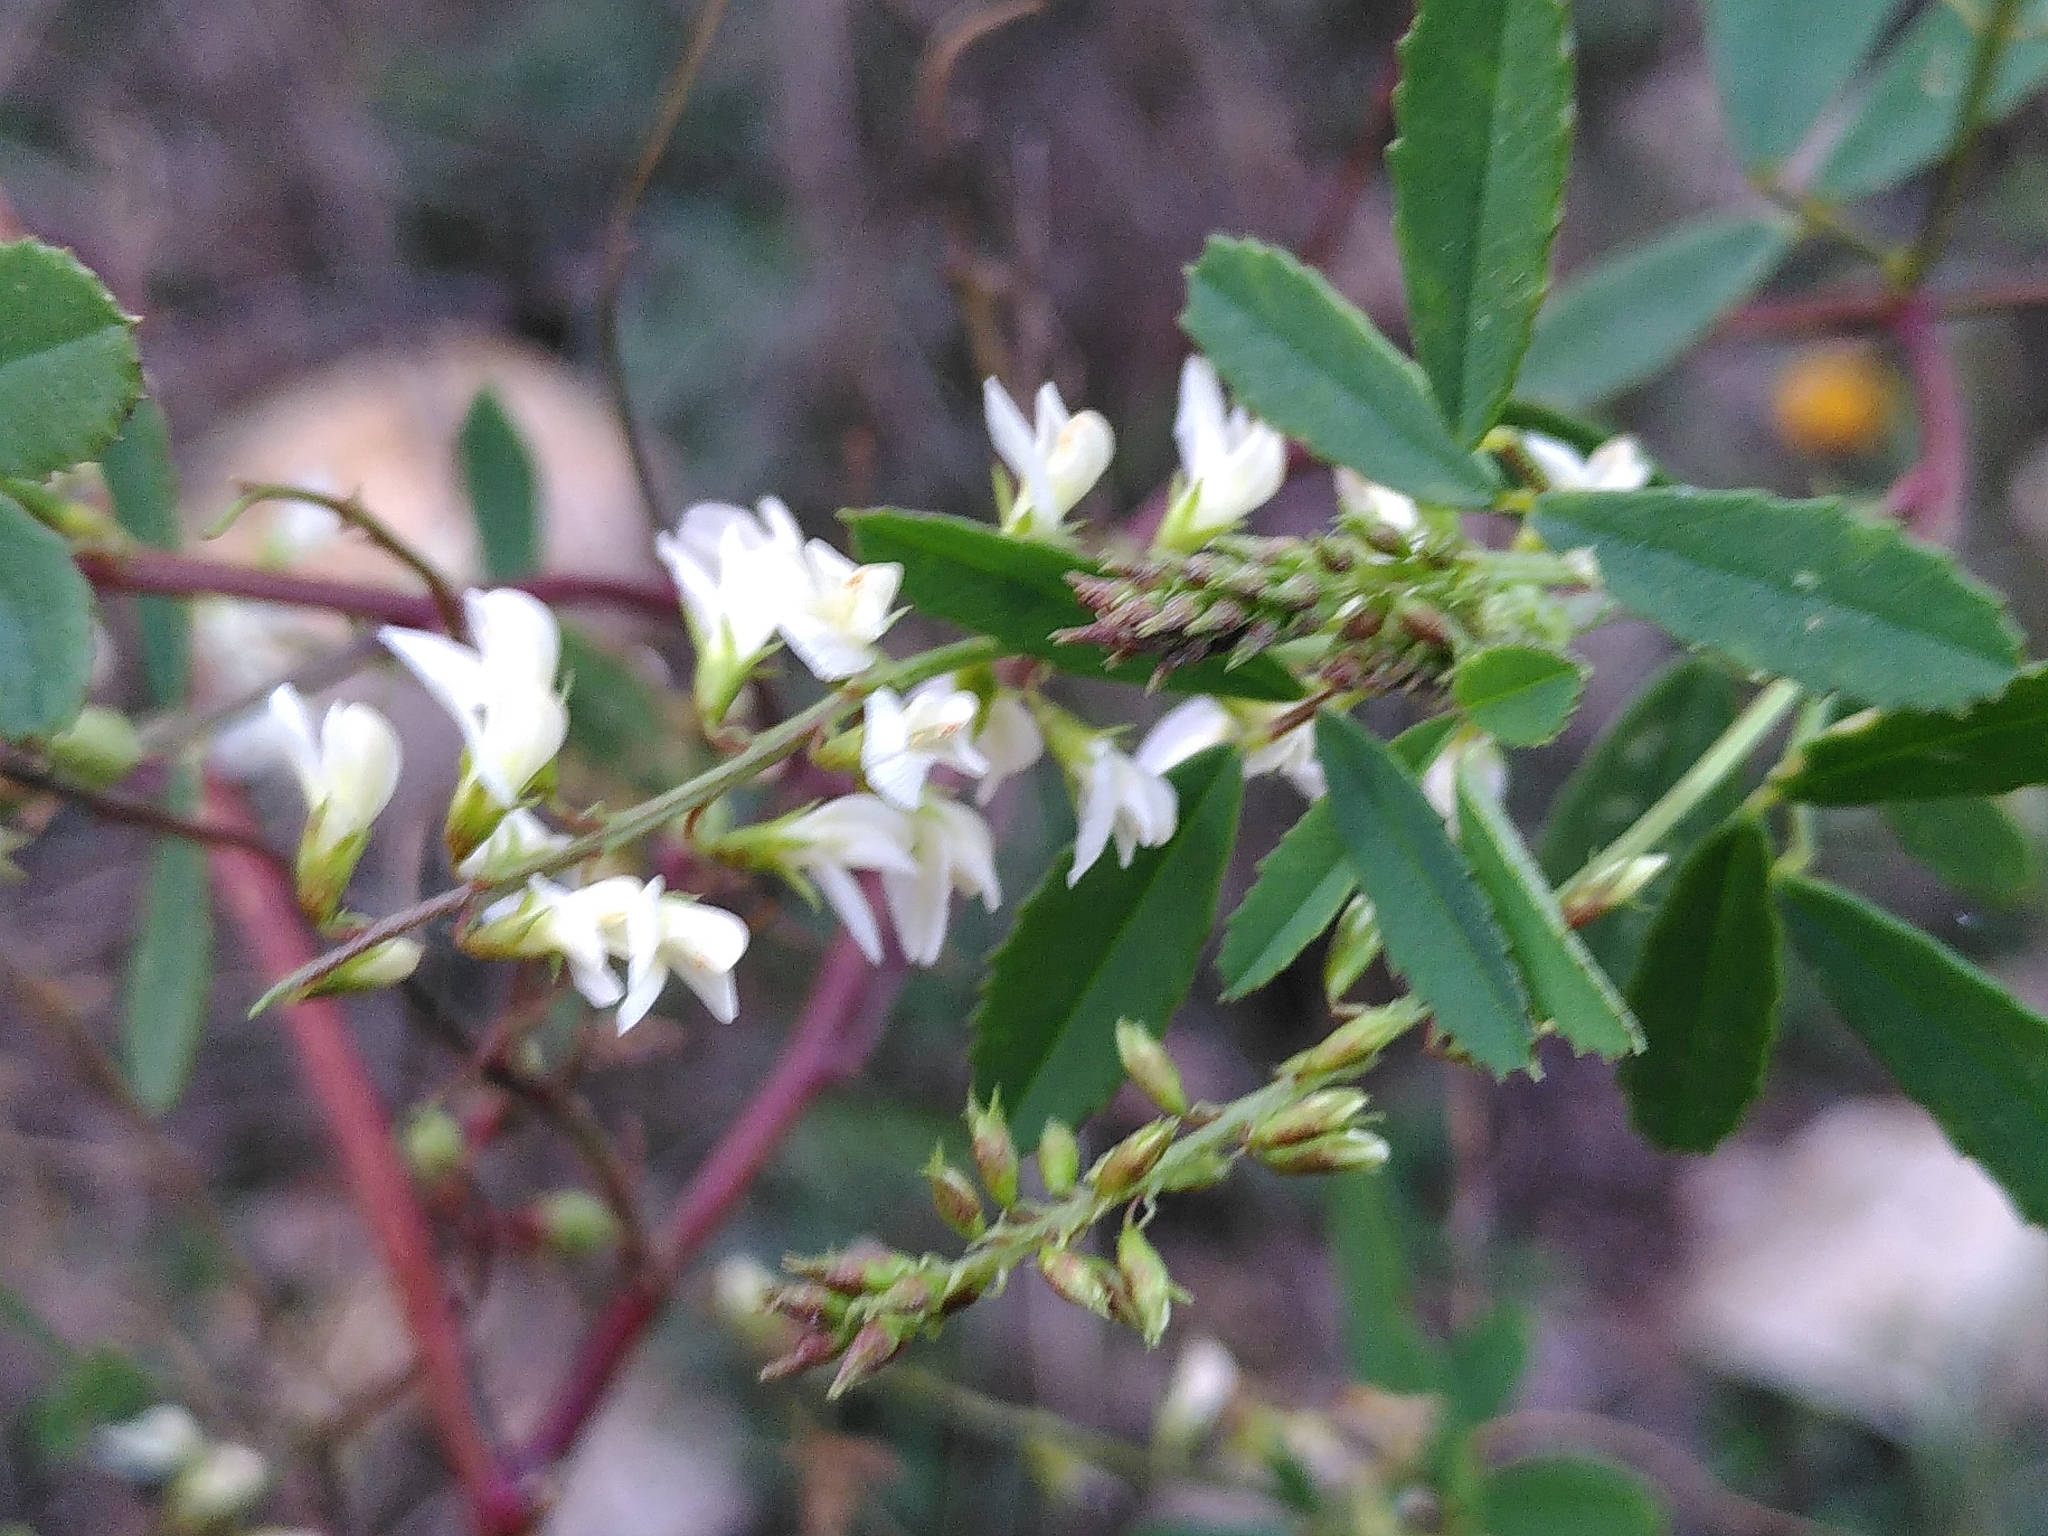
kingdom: Plantae
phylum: Tracheophyta
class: Magnoliopsida
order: Fabales
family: Fabaceae
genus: Melilotus
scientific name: Melilotus albus
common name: White melilot
